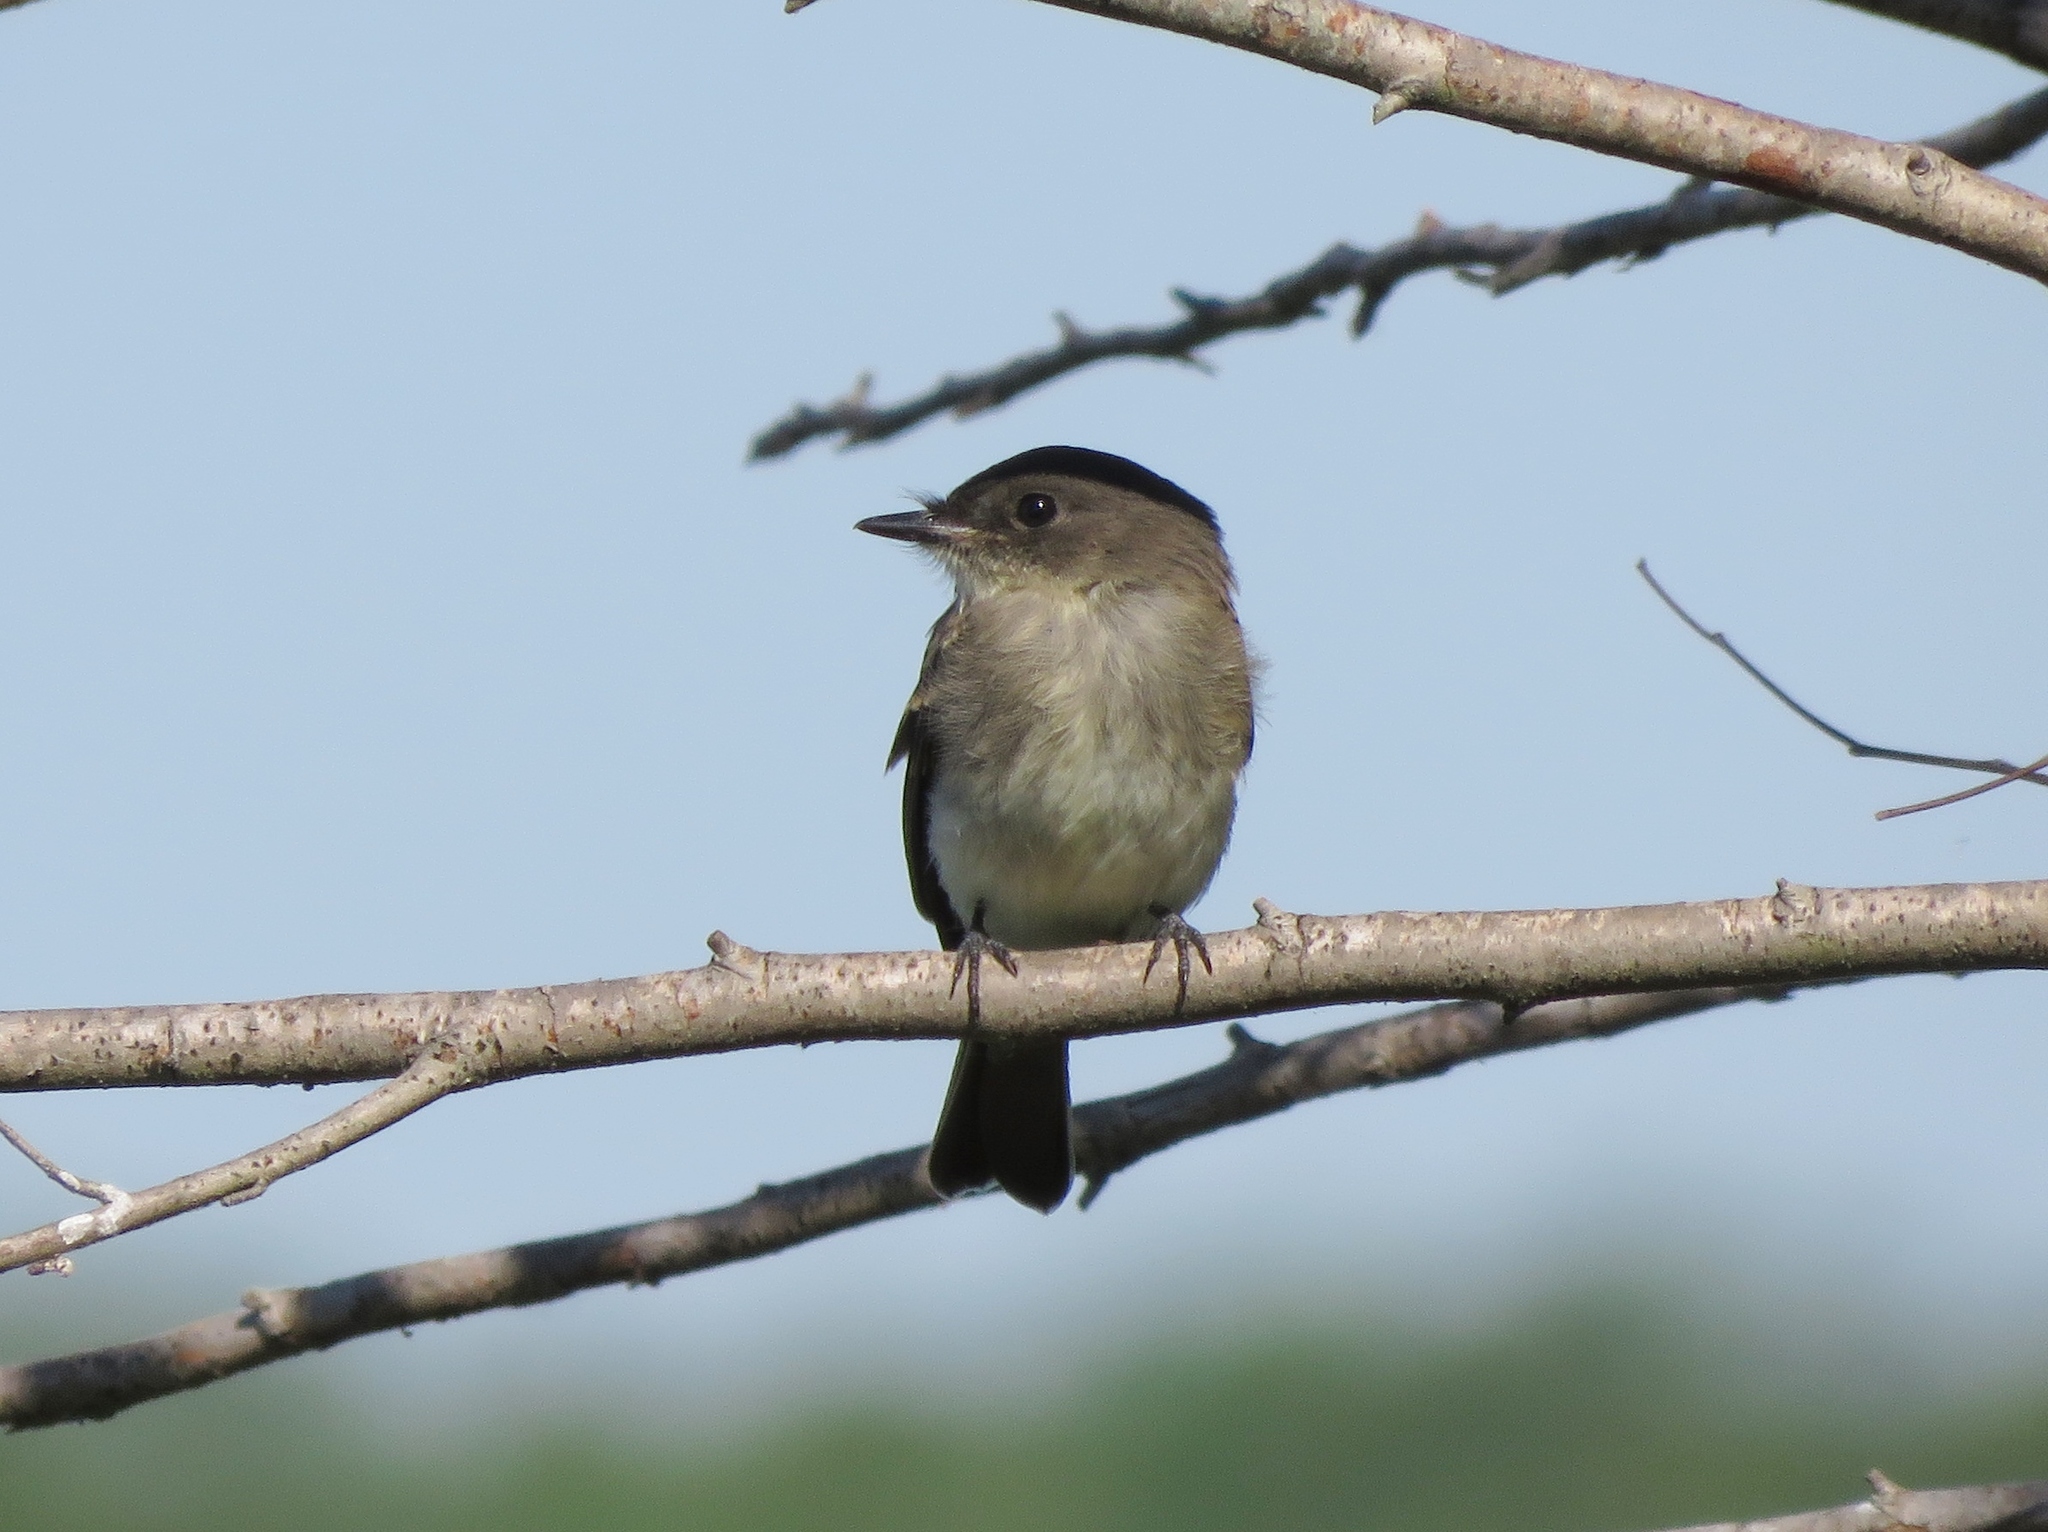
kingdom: Animalia
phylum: Chordata
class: Aves
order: Passeriformes
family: Tyrannidae
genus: Sayornis
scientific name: Sayornis phoebe
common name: Eastern phoebe
